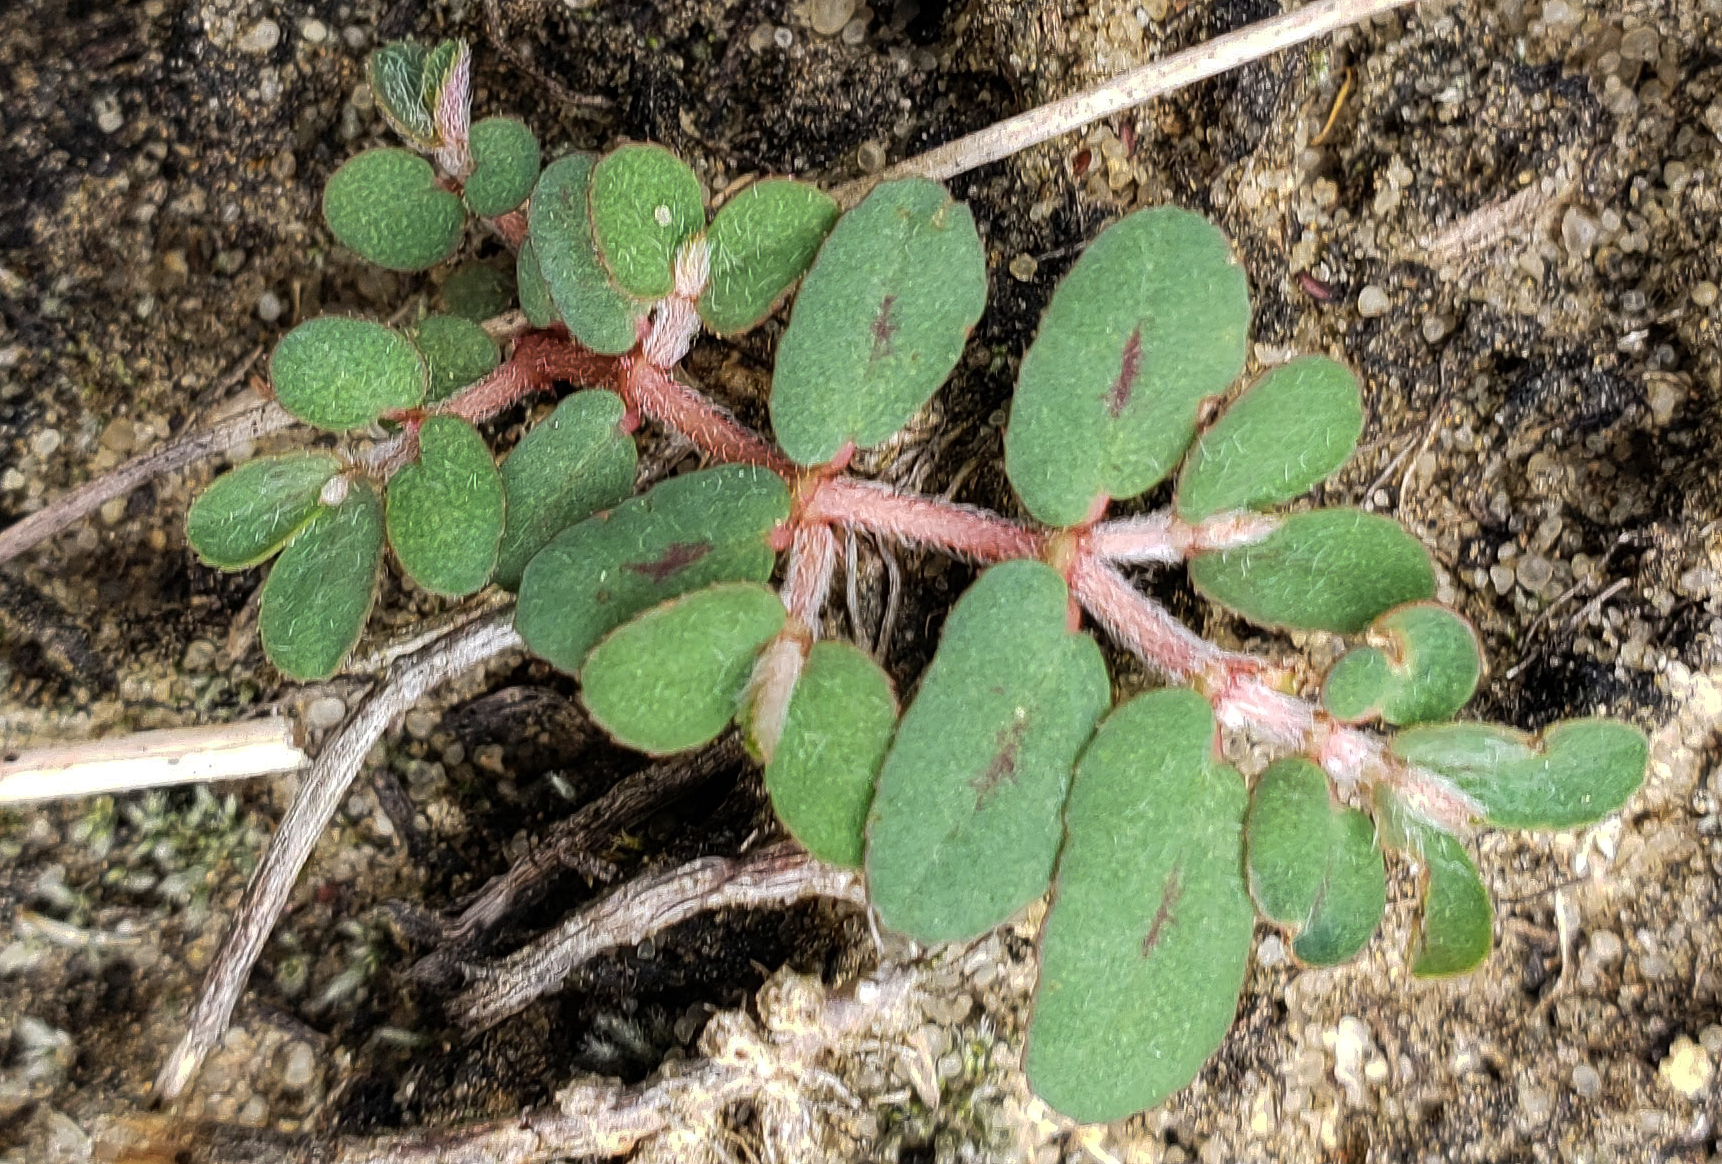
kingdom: Plantae
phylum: Tracheophyta
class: Magnoliopsida
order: Malpighiales
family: Euphorbiaceae
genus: Euphorbia
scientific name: Euphorbia maculata
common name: Spotted spurge
